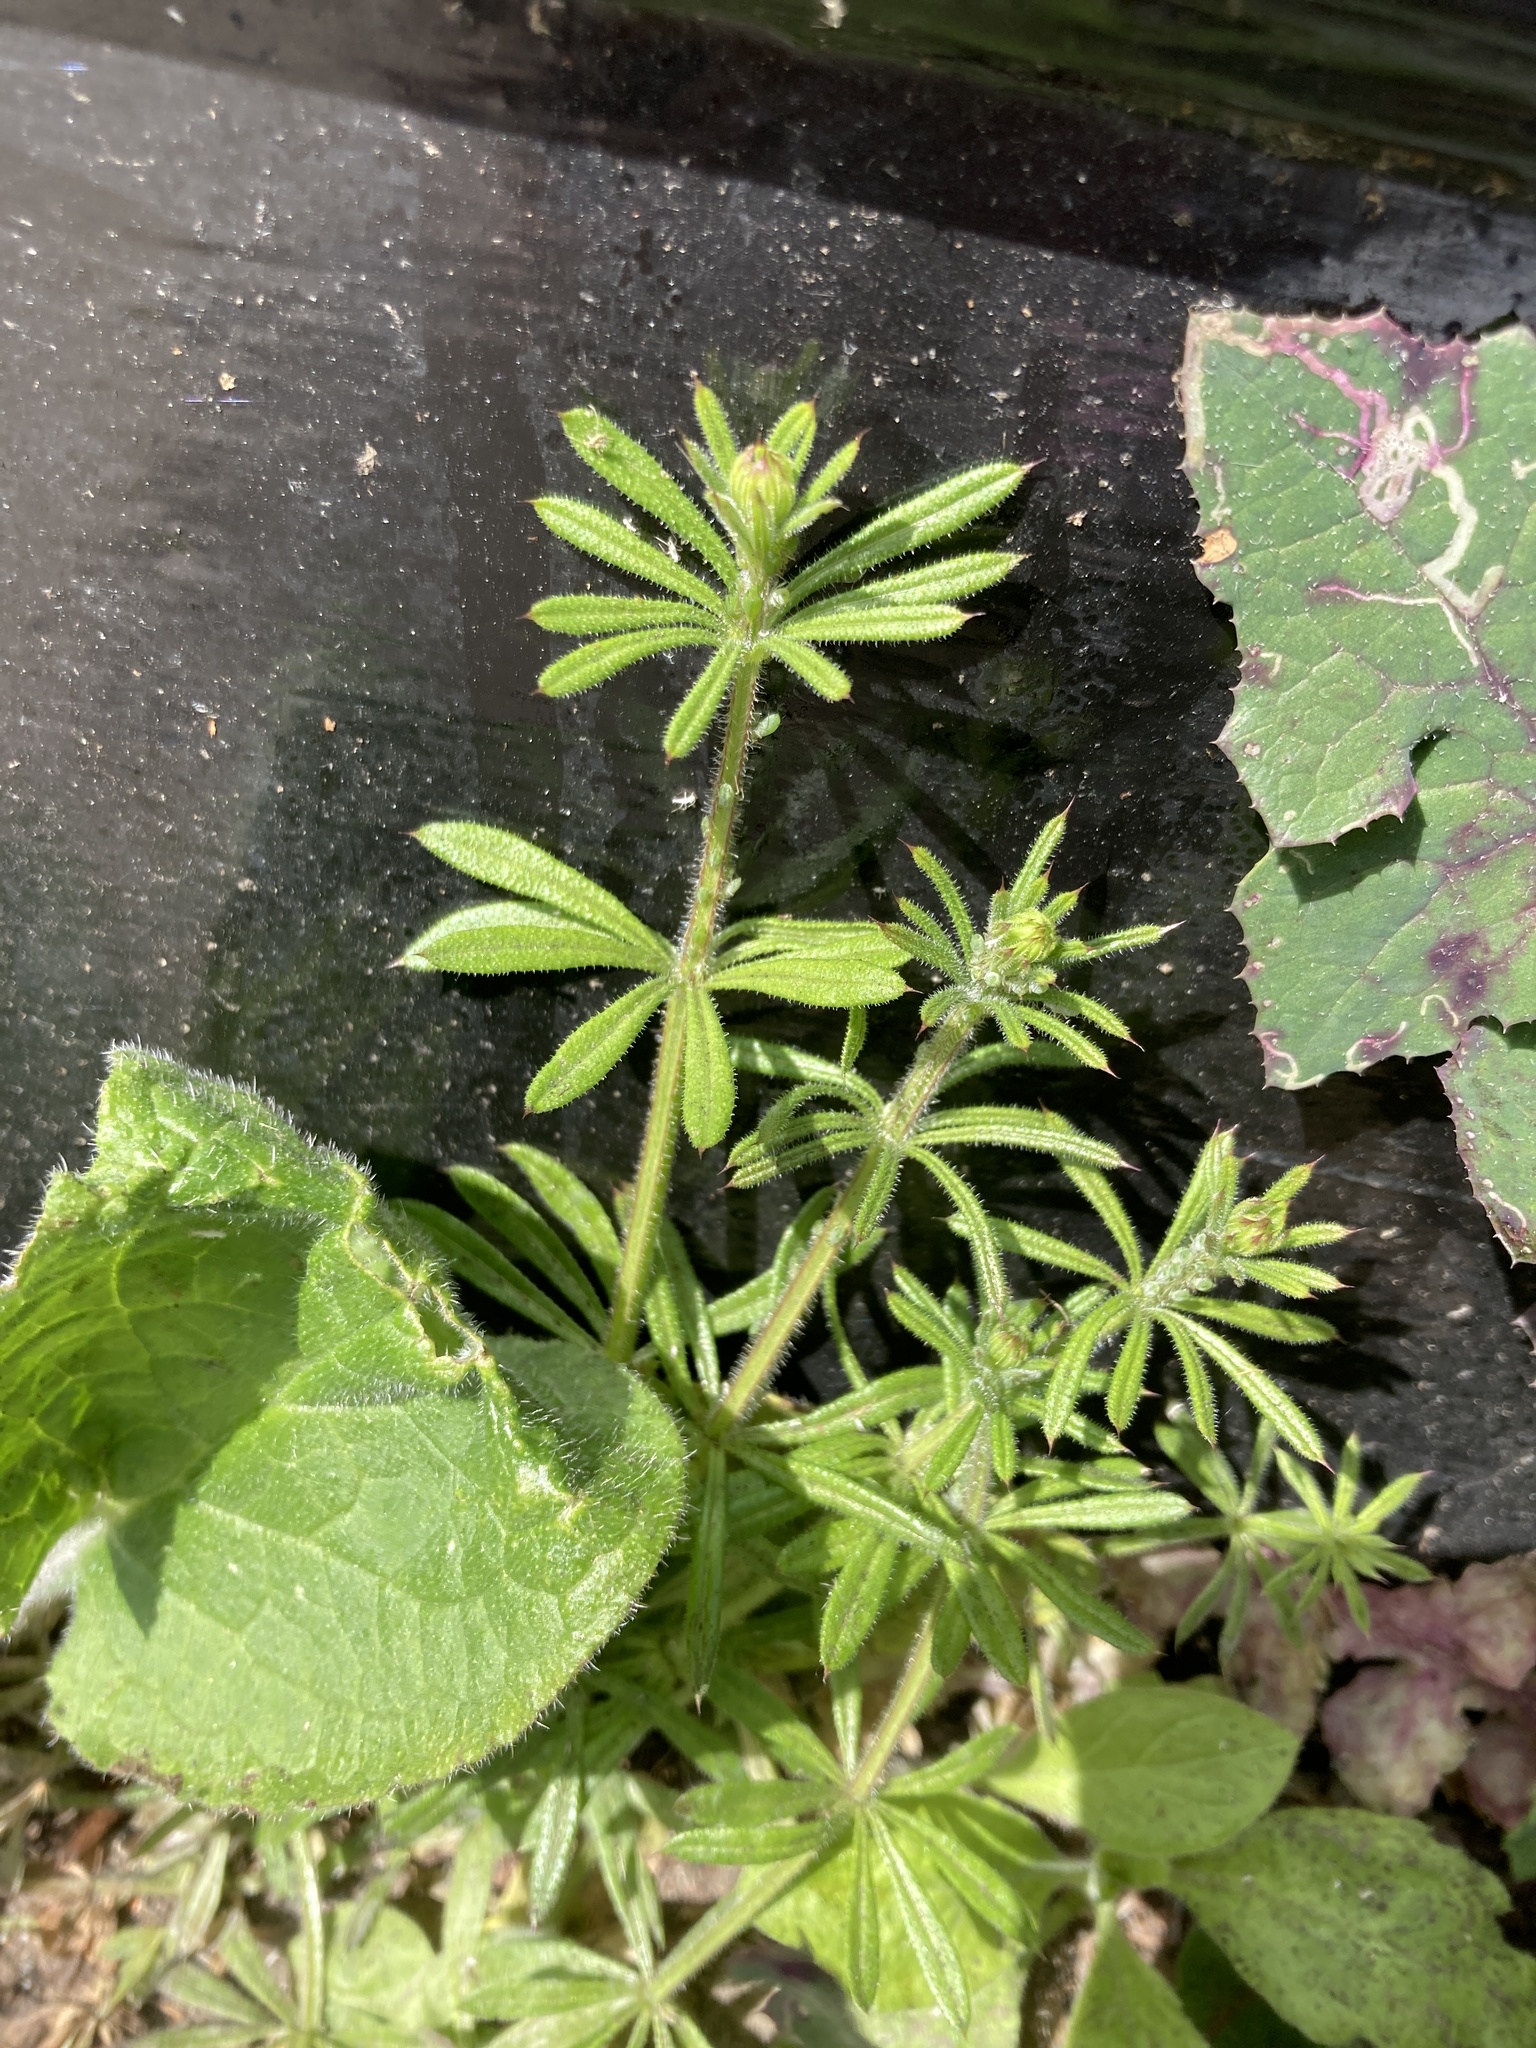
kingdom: Plantae
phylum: Tracheophyta
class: Magnoliopsida
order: Gentianales
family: Rubiaceae
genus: Galium
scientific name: Galium aparine
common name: Cleavers
